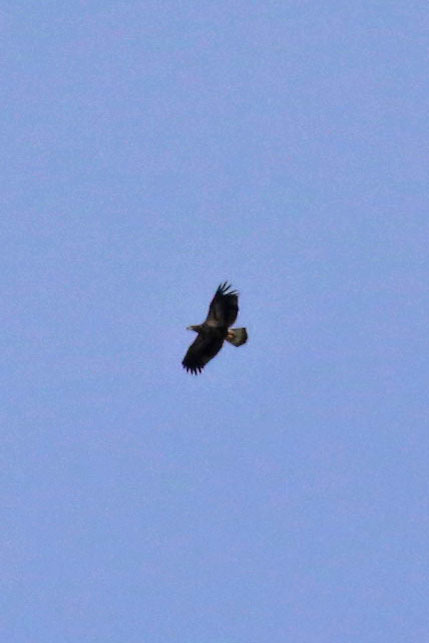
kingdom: Animalia
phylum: Chordata
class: Aves
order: Accipitriformes
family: Accipitridae
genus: Haliaeetus
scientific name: Haliaeetus leucocephalus
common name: Bald eagle
